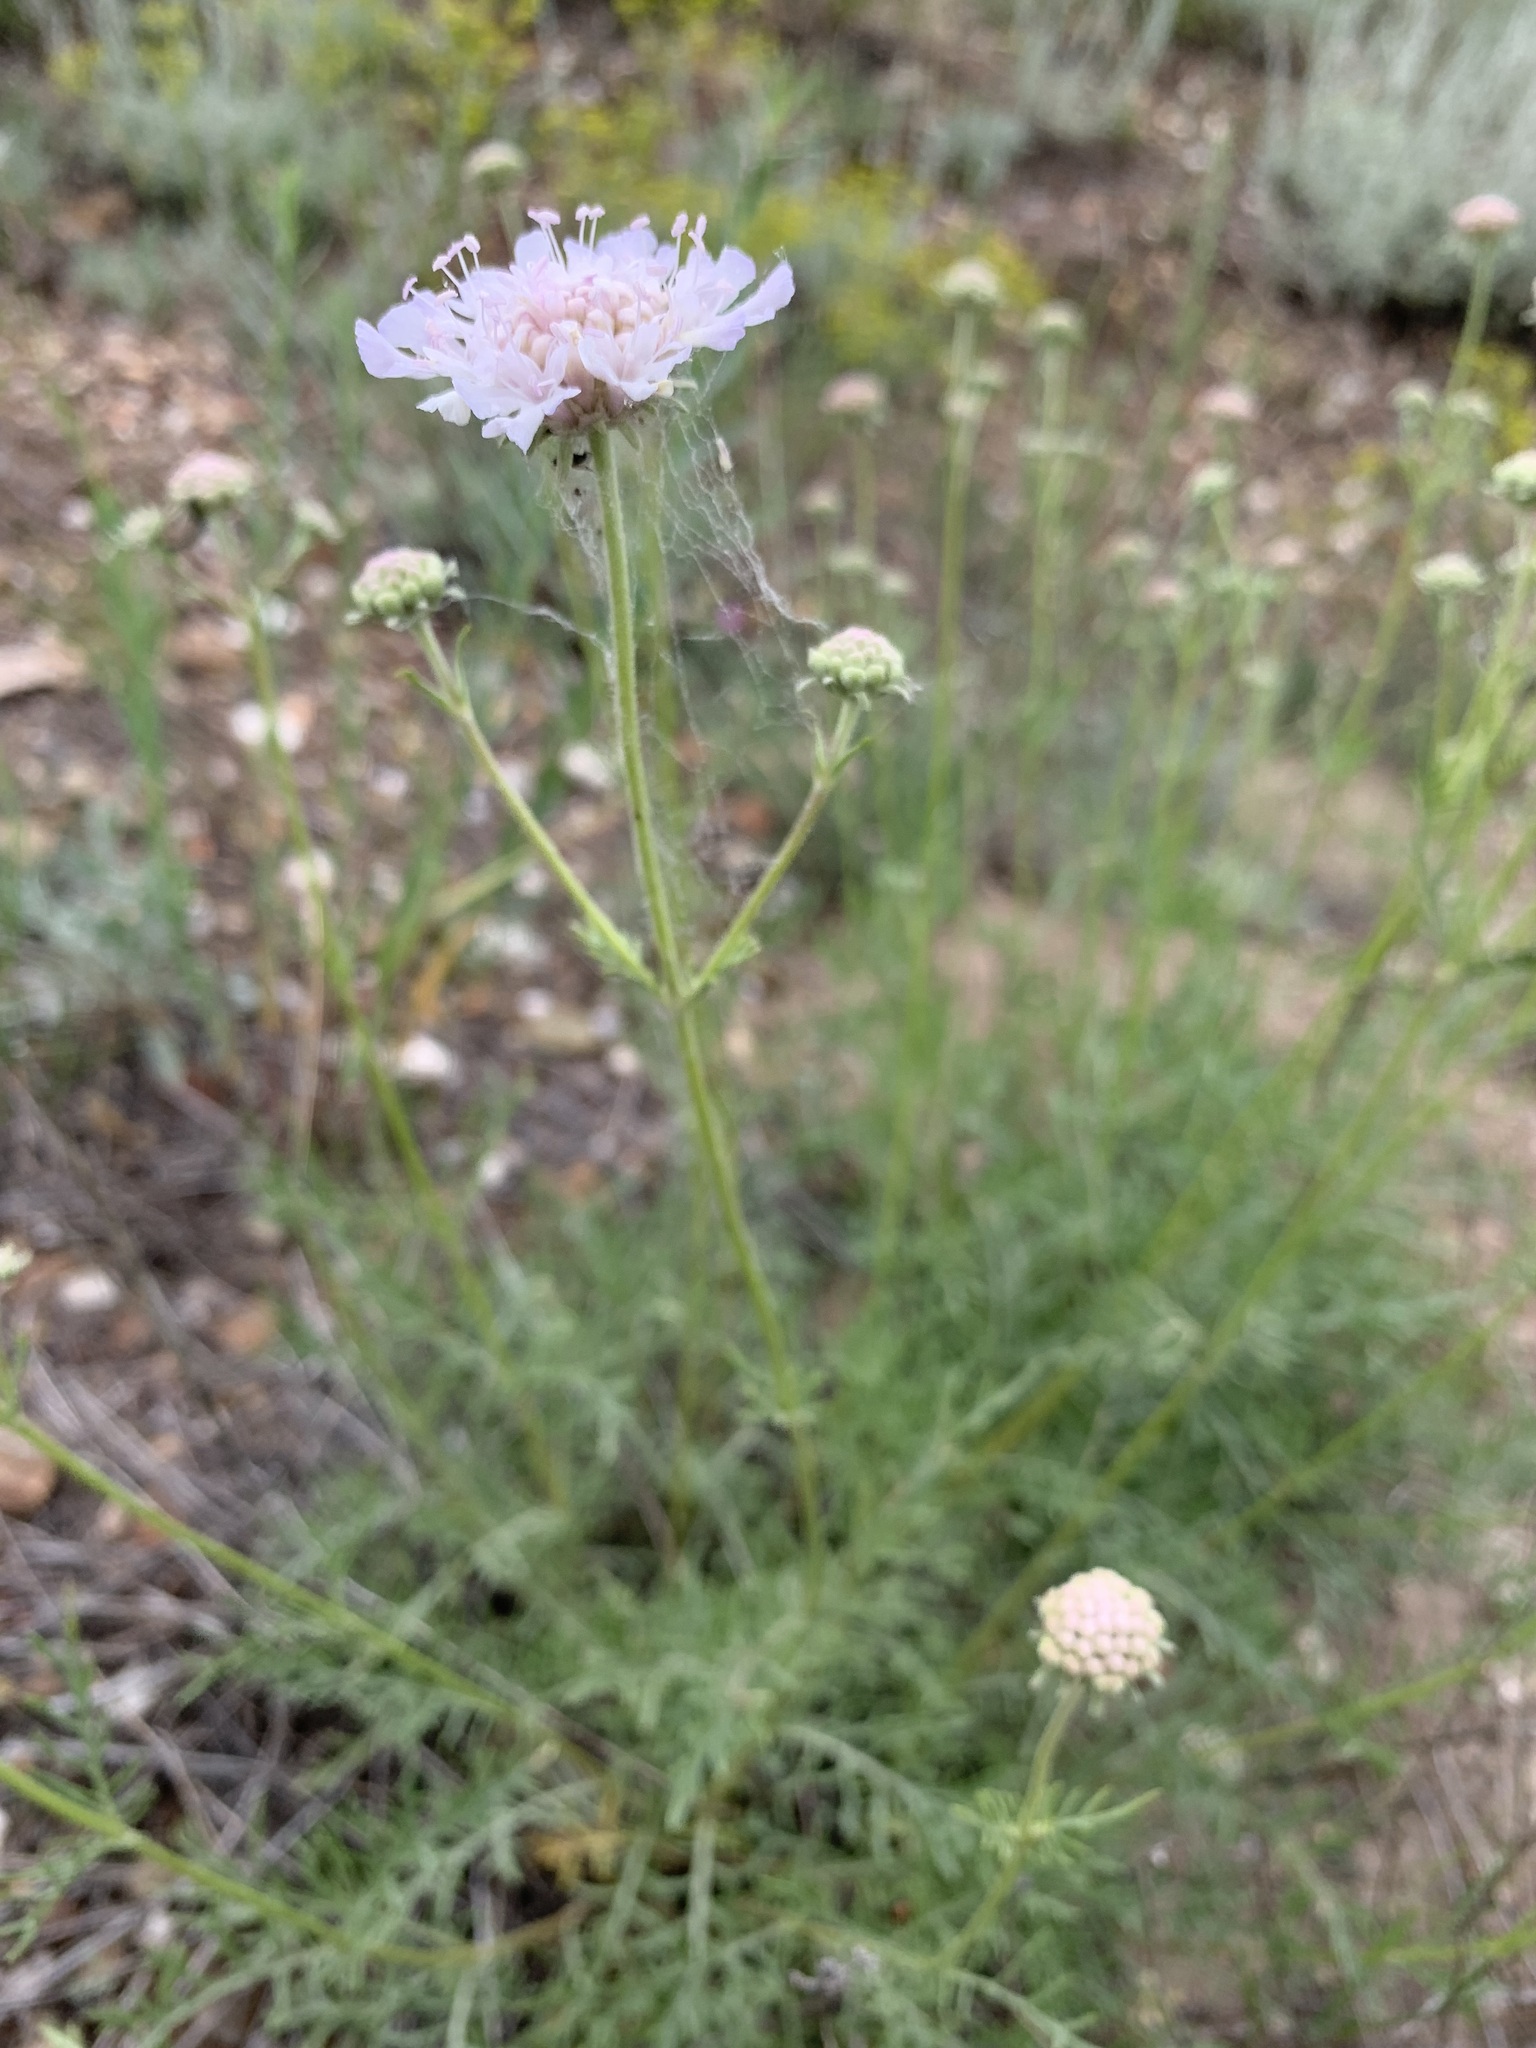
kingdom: Plantae
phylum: Tracheophyta
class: Magnoliopsida
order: Dipsacales
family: Caprifoliaceae
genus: Lomelosia
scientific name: Lomelosia isetensis
